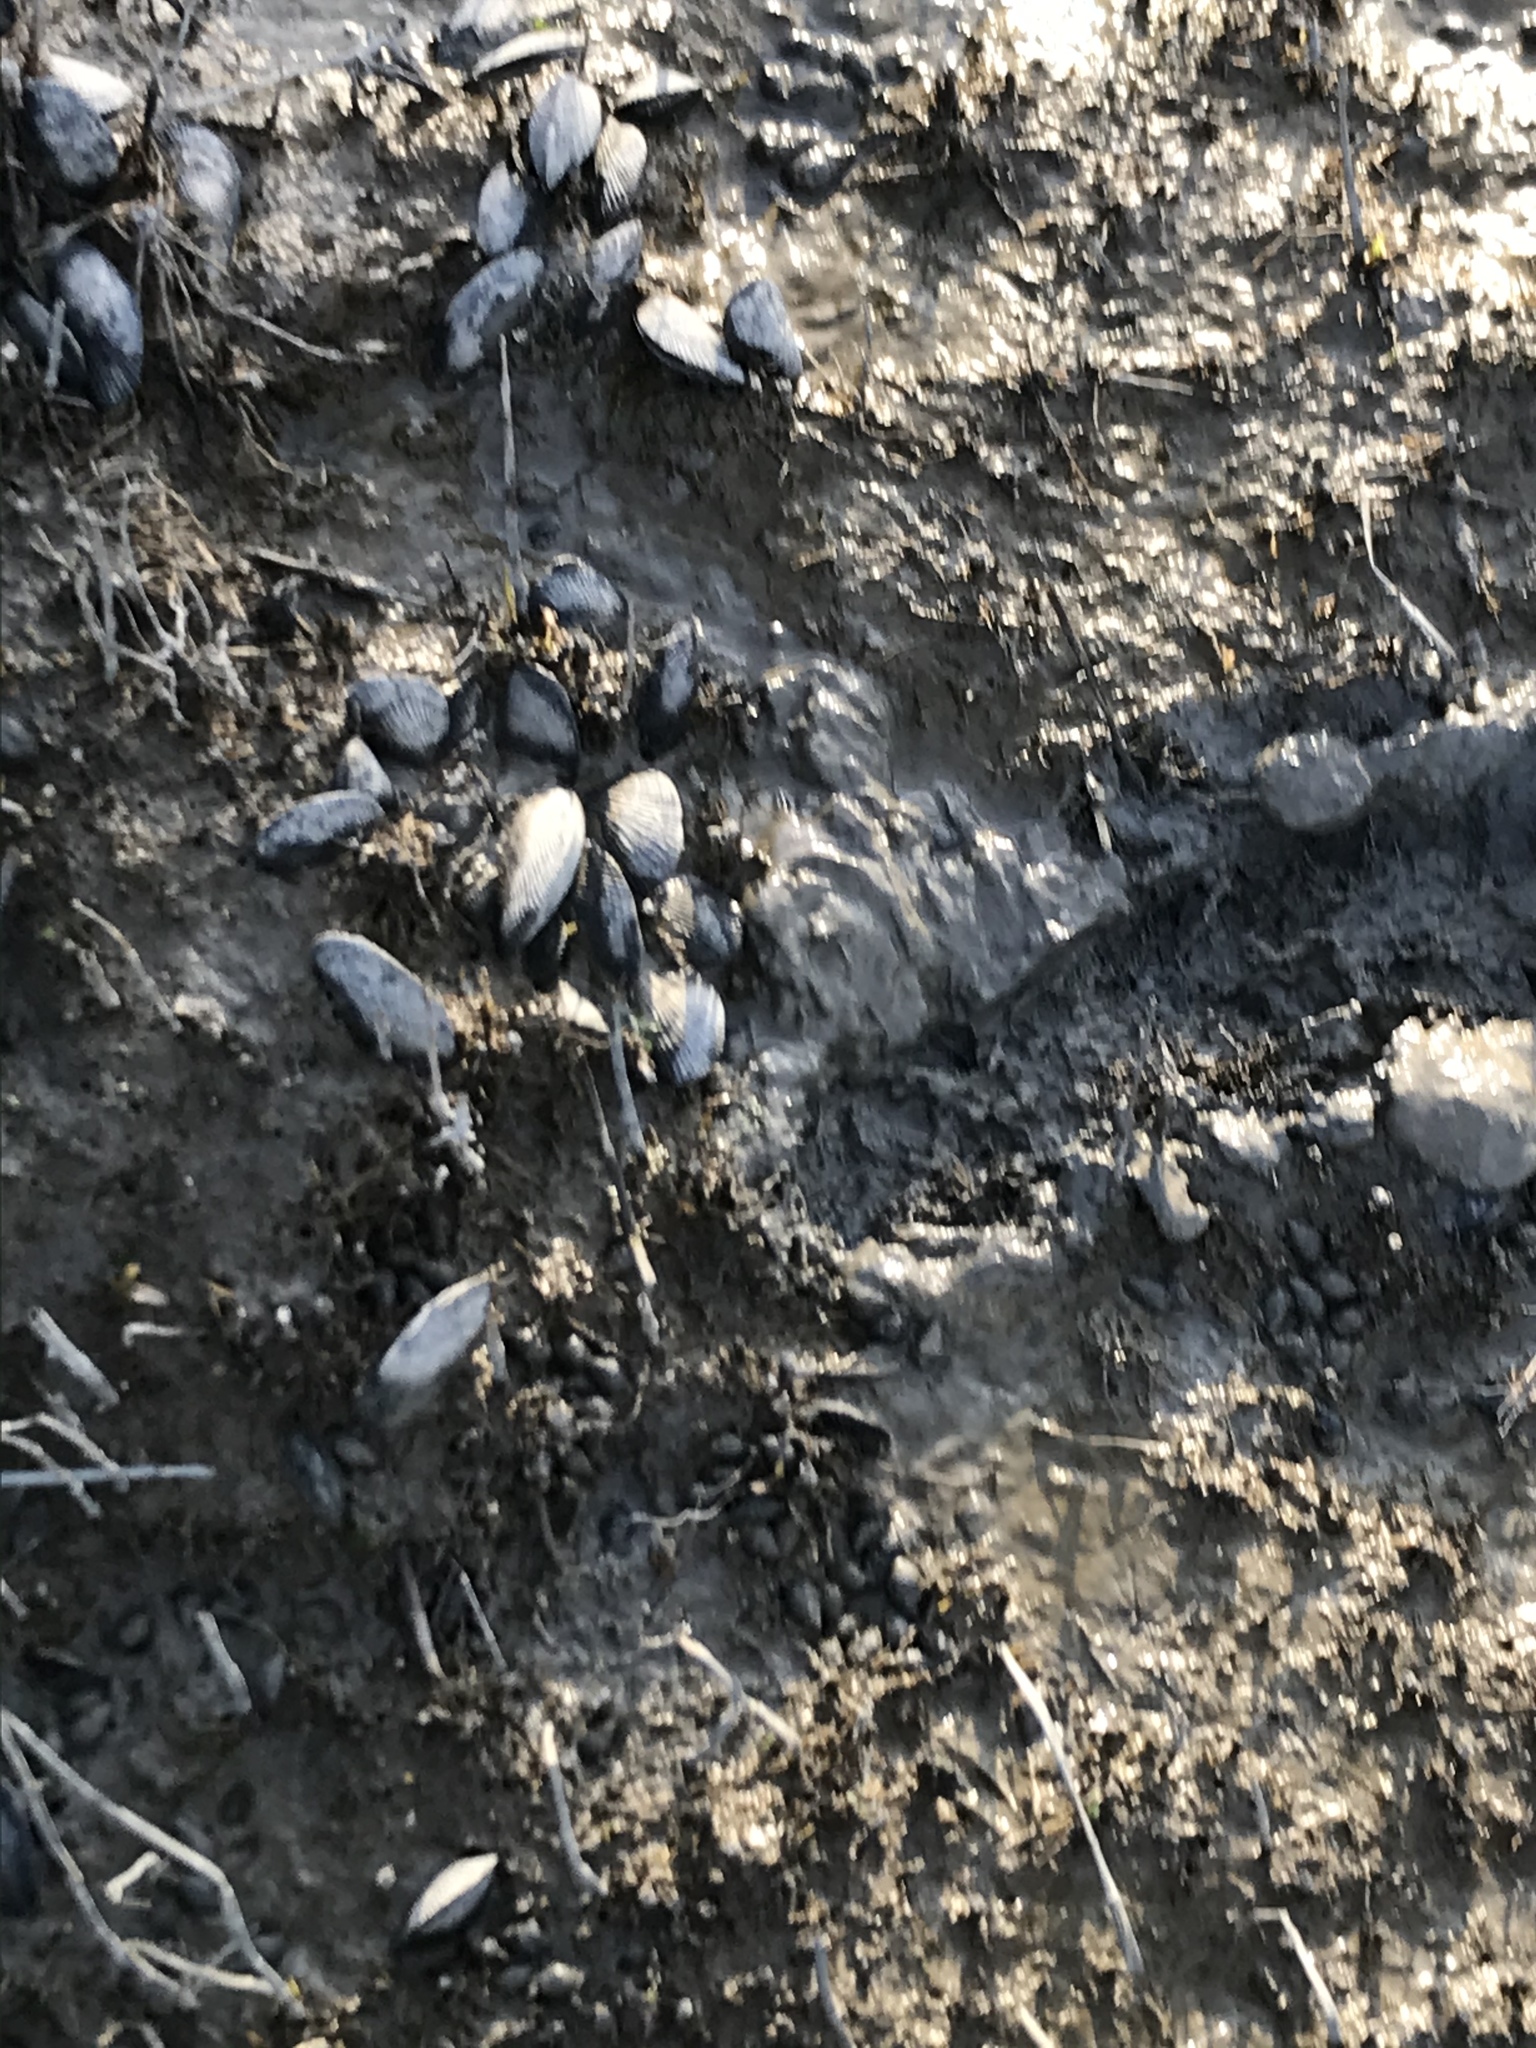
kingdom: Animalia
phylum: Mollusca
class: Bivalvia
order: Mytilida
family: Mytilidae
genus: Geukensia
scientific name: Geukensia demissa
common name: Ribbed mussel
